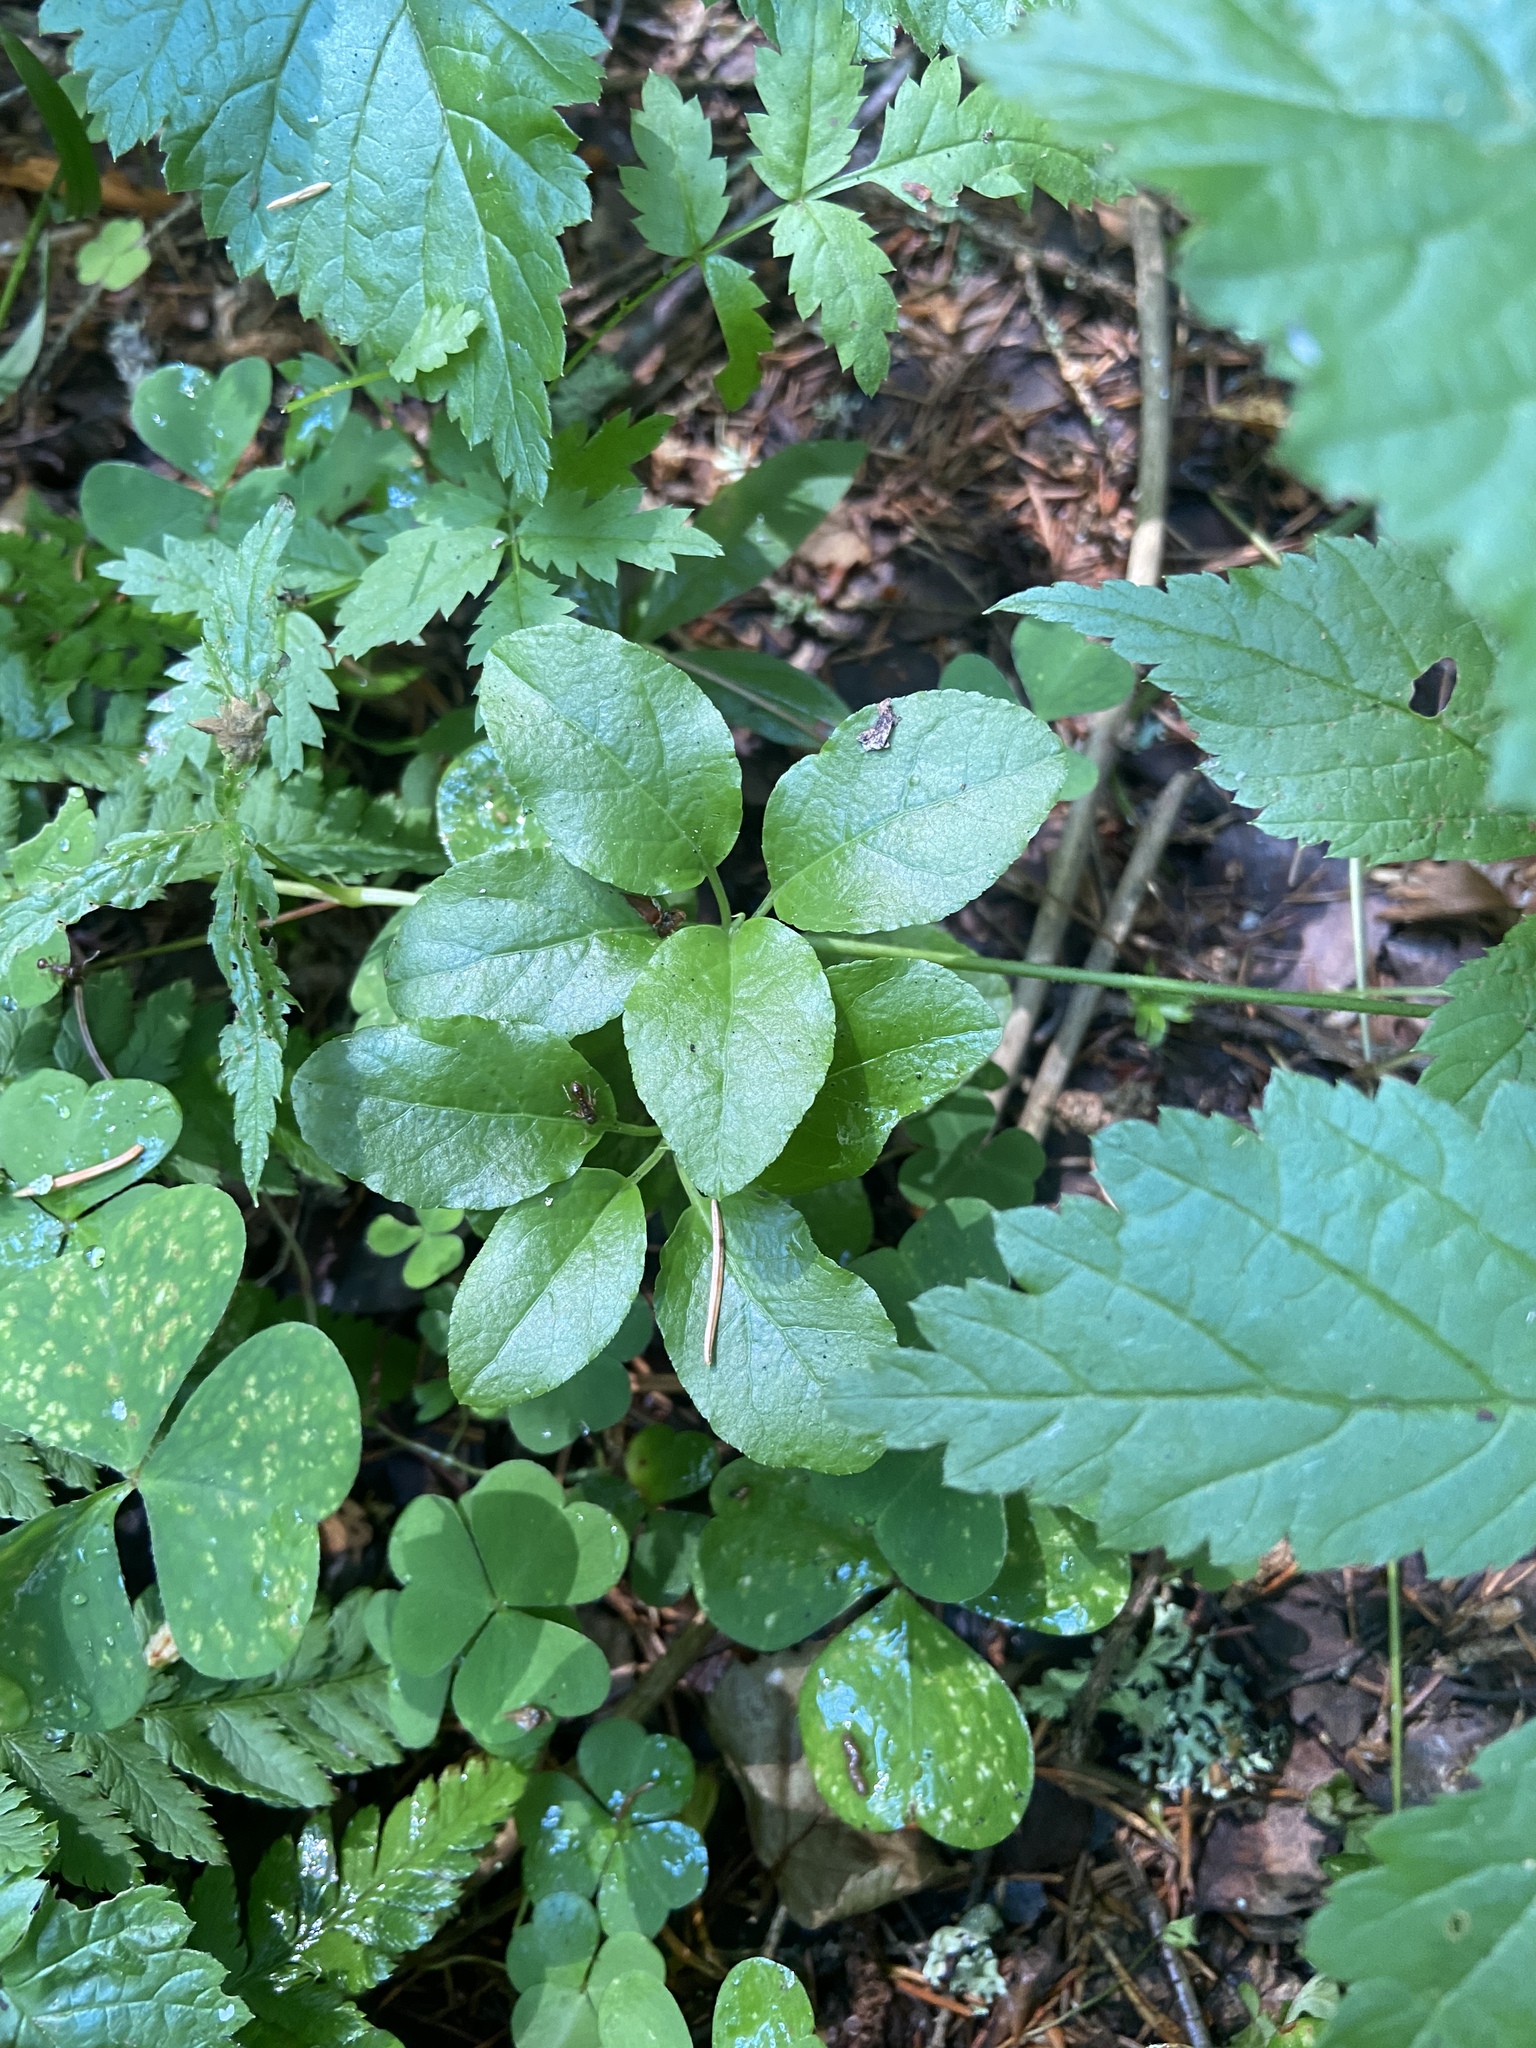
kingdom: Plantae
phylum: Tracheophyta
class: Magnoliopsida
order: Ericales
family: Ericaceae
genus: Orthilia
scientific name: Orthilia secunda
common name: One-sided orthilia
